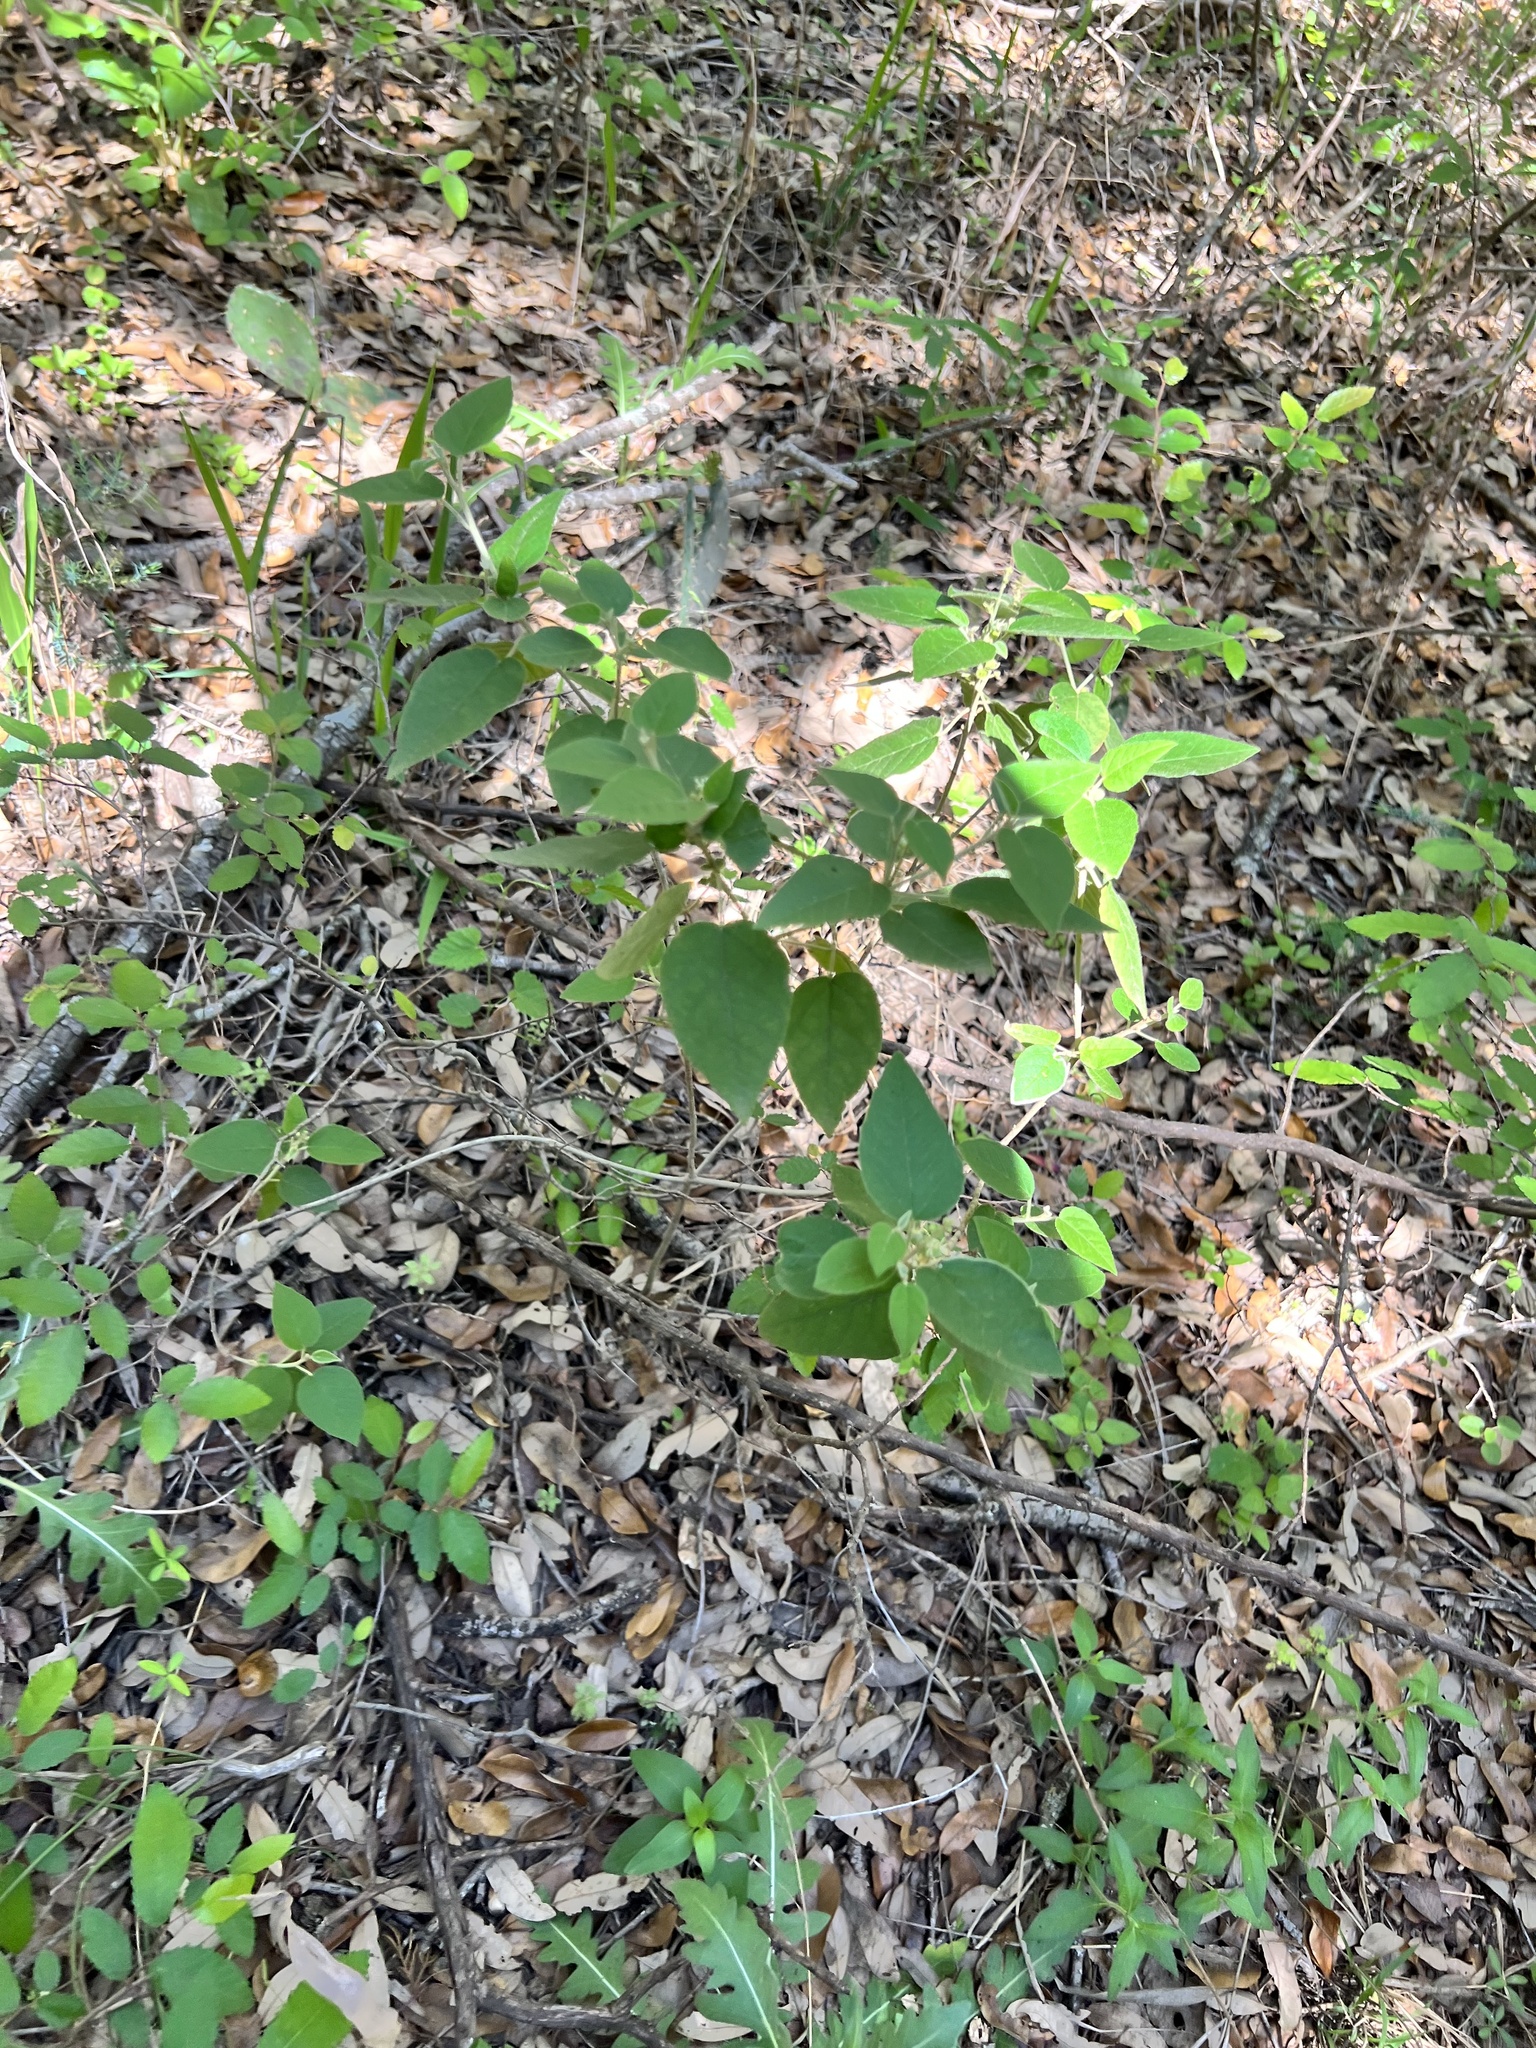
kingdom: Plantae
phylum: Tracheophyta
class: Magnoliopsida
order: Malpighiales
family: Euphorbiaceae
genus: Croton
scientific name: Croton fruticulosus
